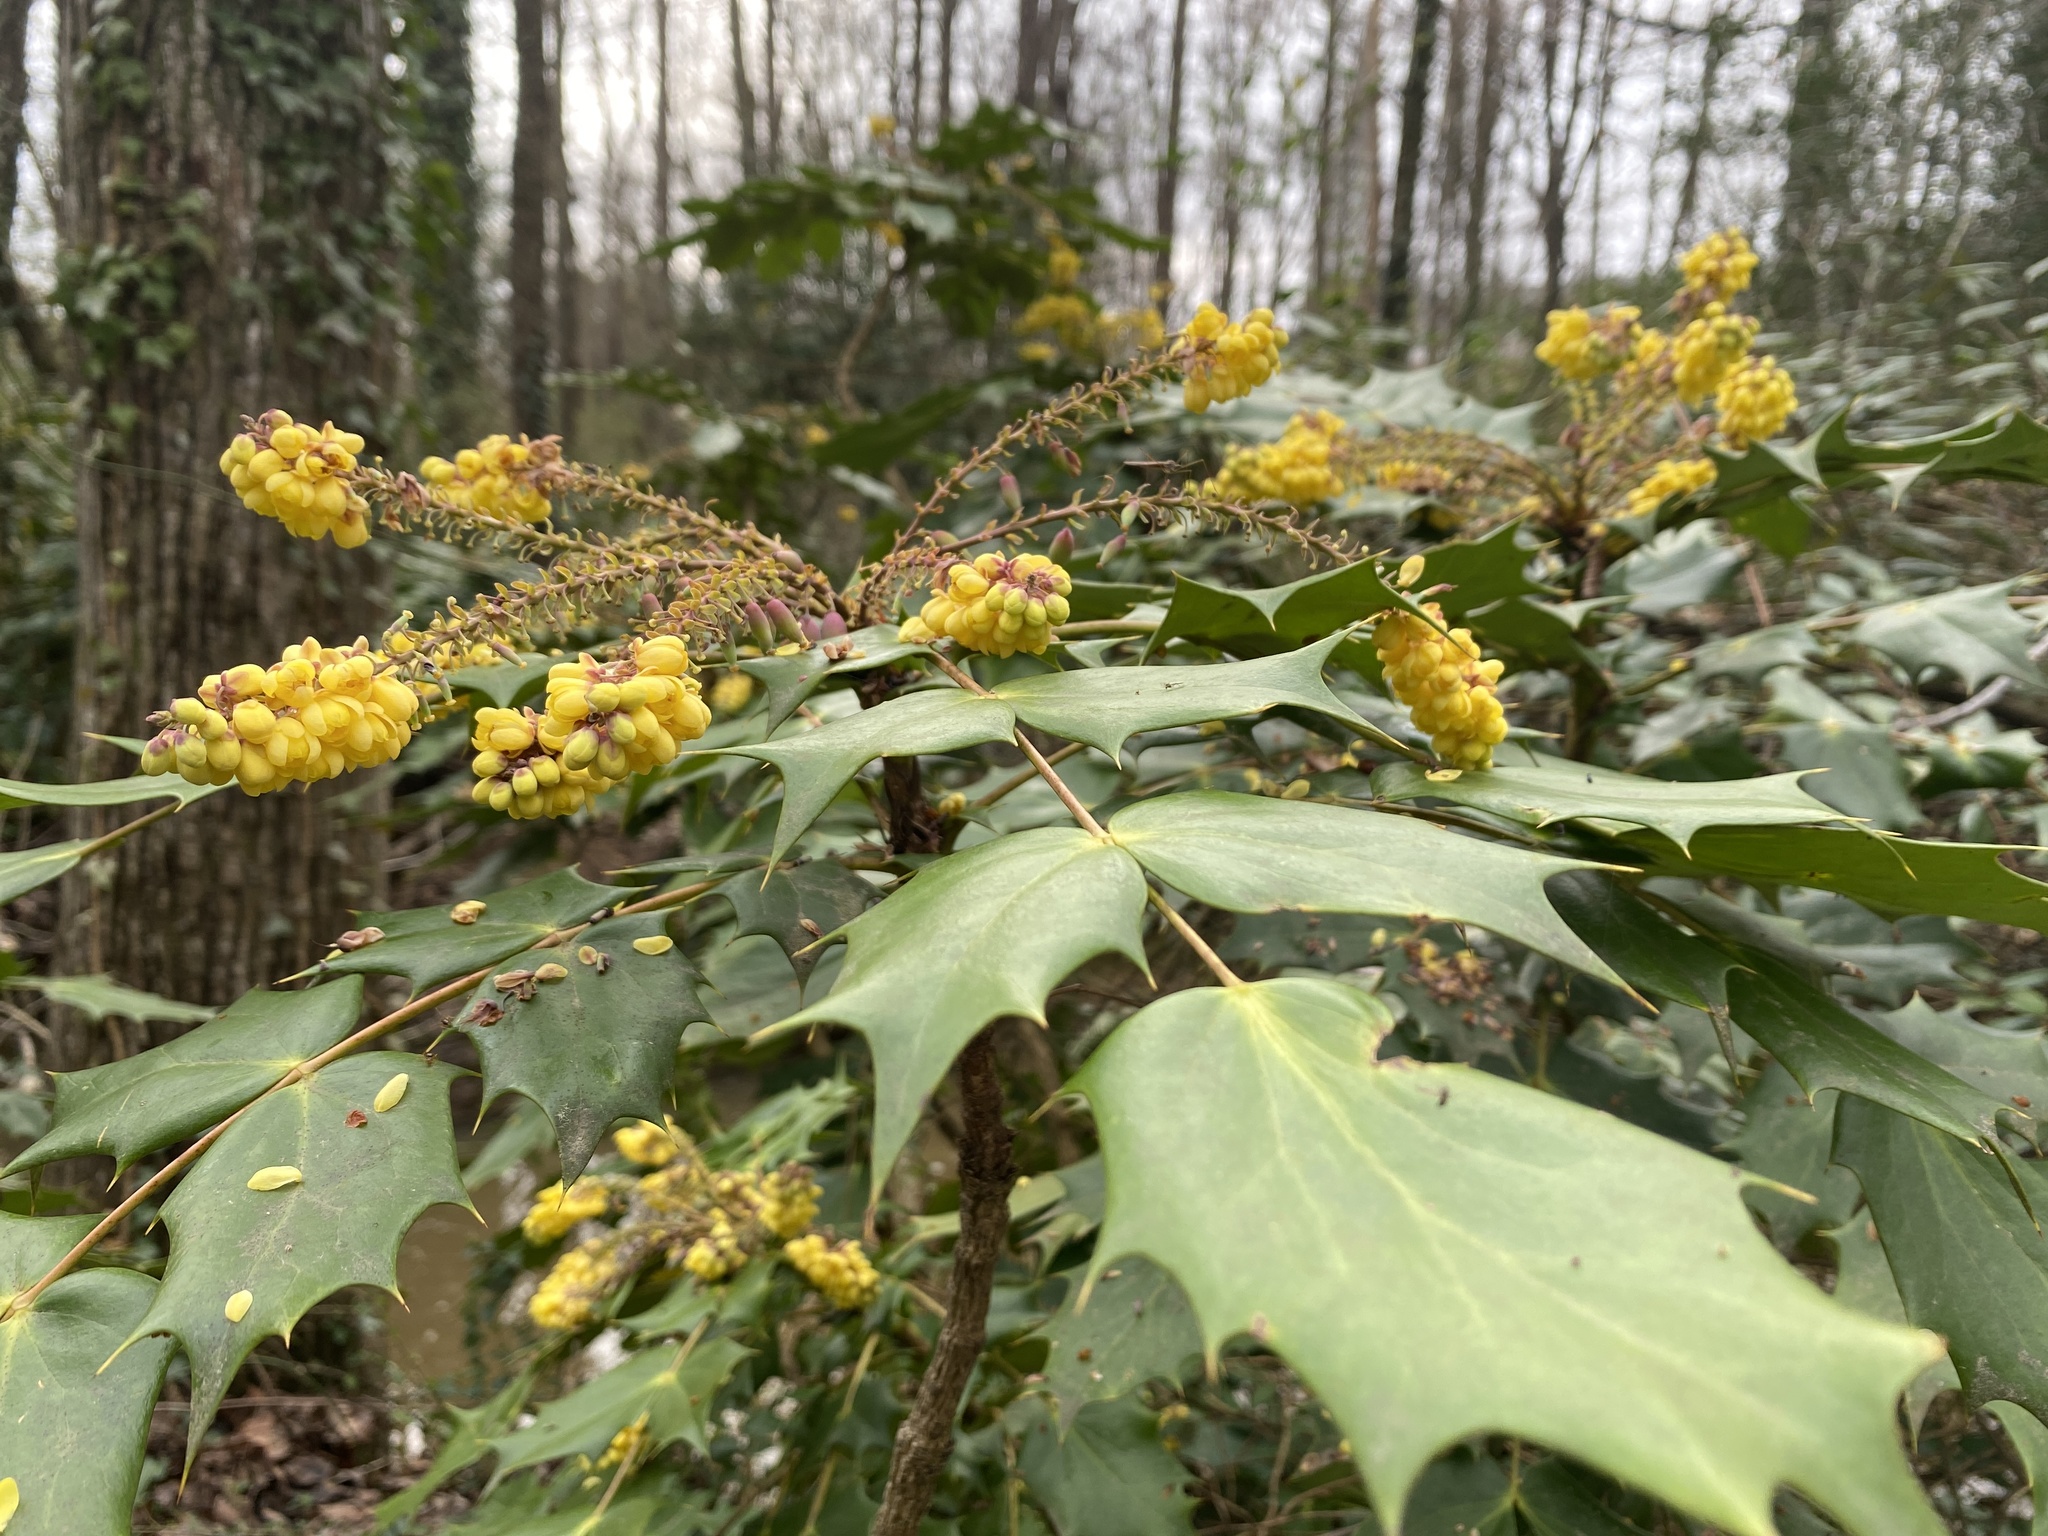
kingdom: Plantae
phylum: Tracheophyta
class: Magnoliopsida
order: Ranunculales
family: Berberidaceae
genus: Mahonia
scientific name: Mahonia bealei
